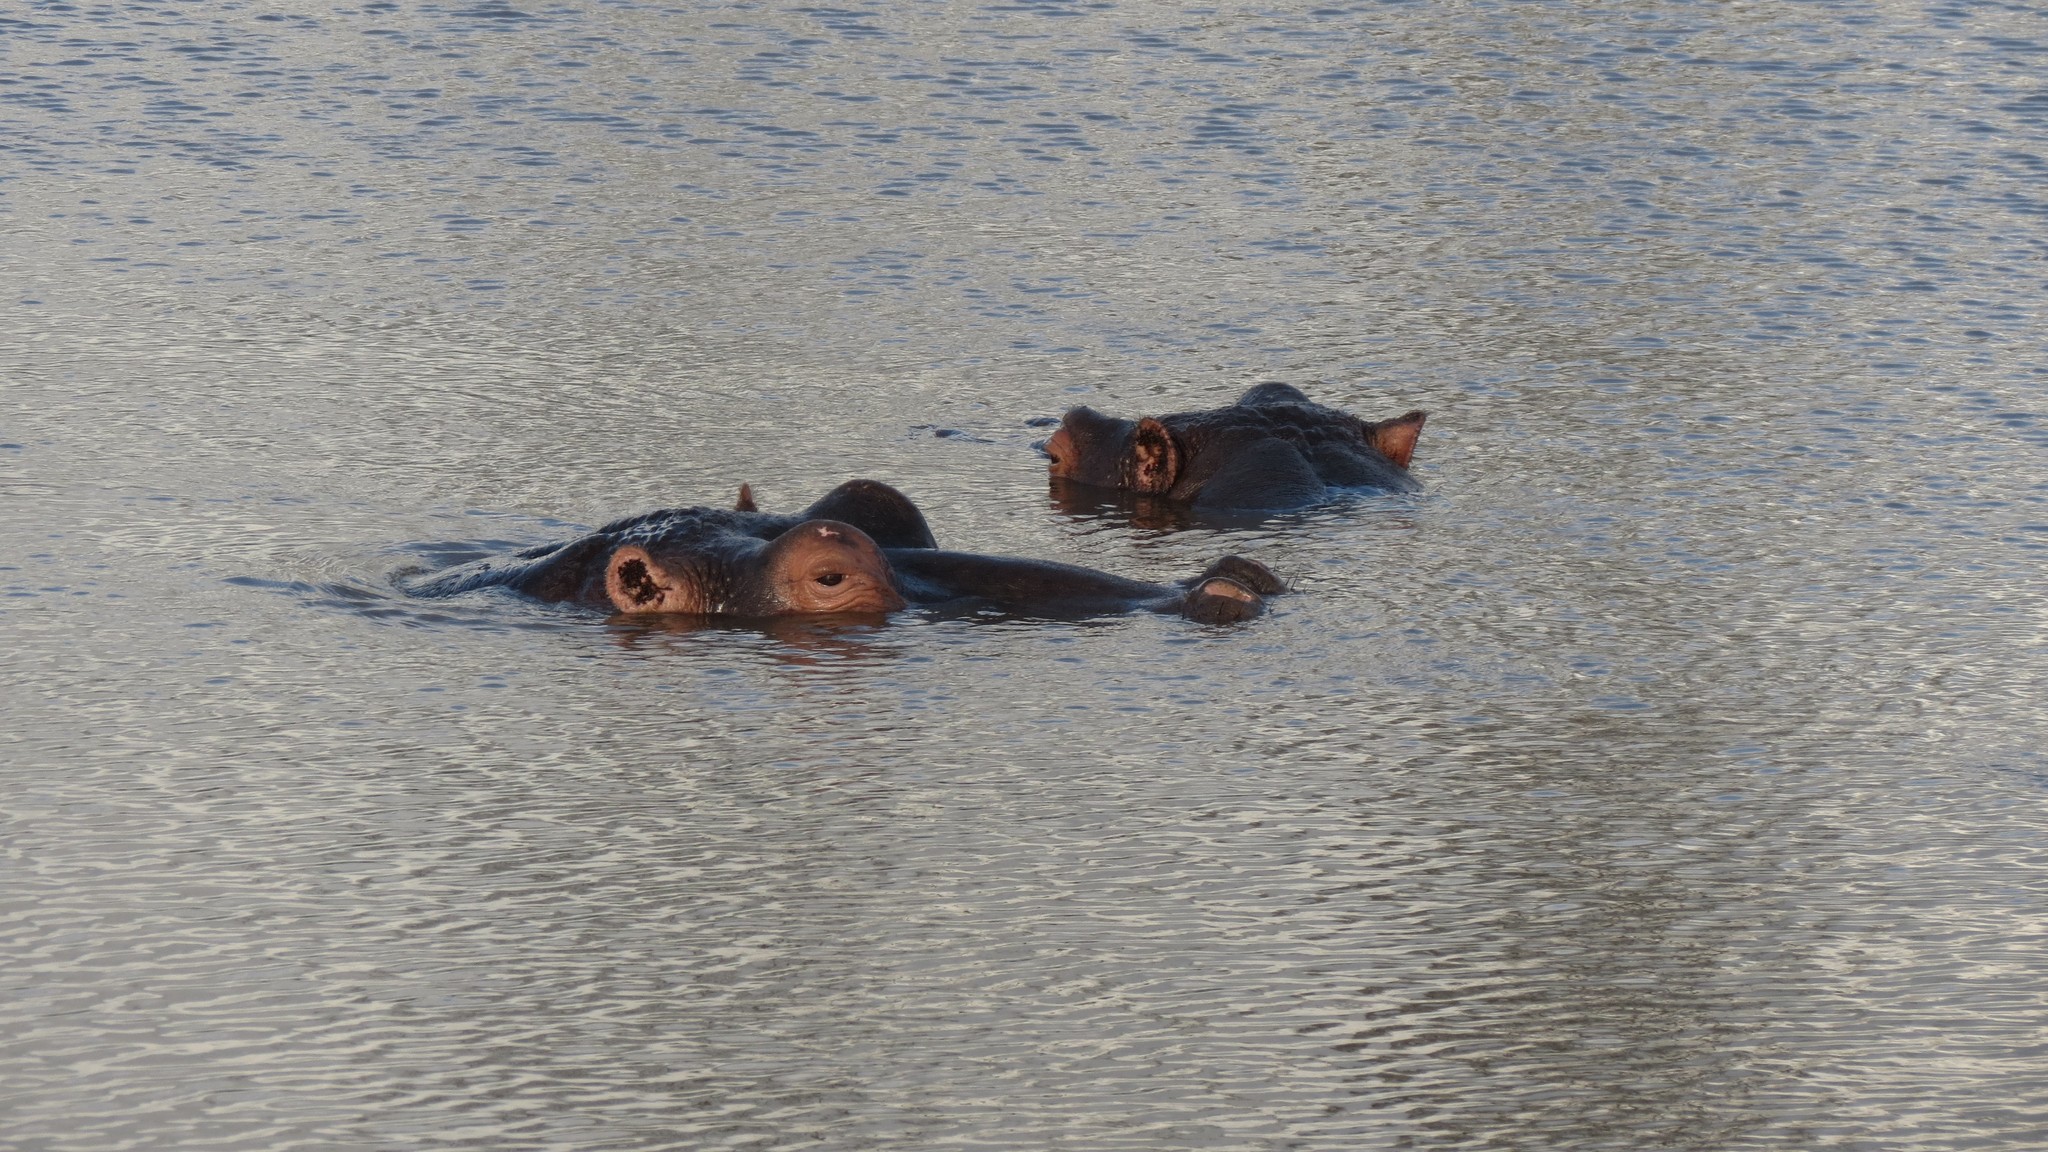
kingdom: Animalia
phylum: Chordata
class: Mammalia
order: Artiodactyla
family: Hippopotamidae
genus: Hippopotamus
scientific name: Hippopotamus amphibius
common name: Common hippopotamus
